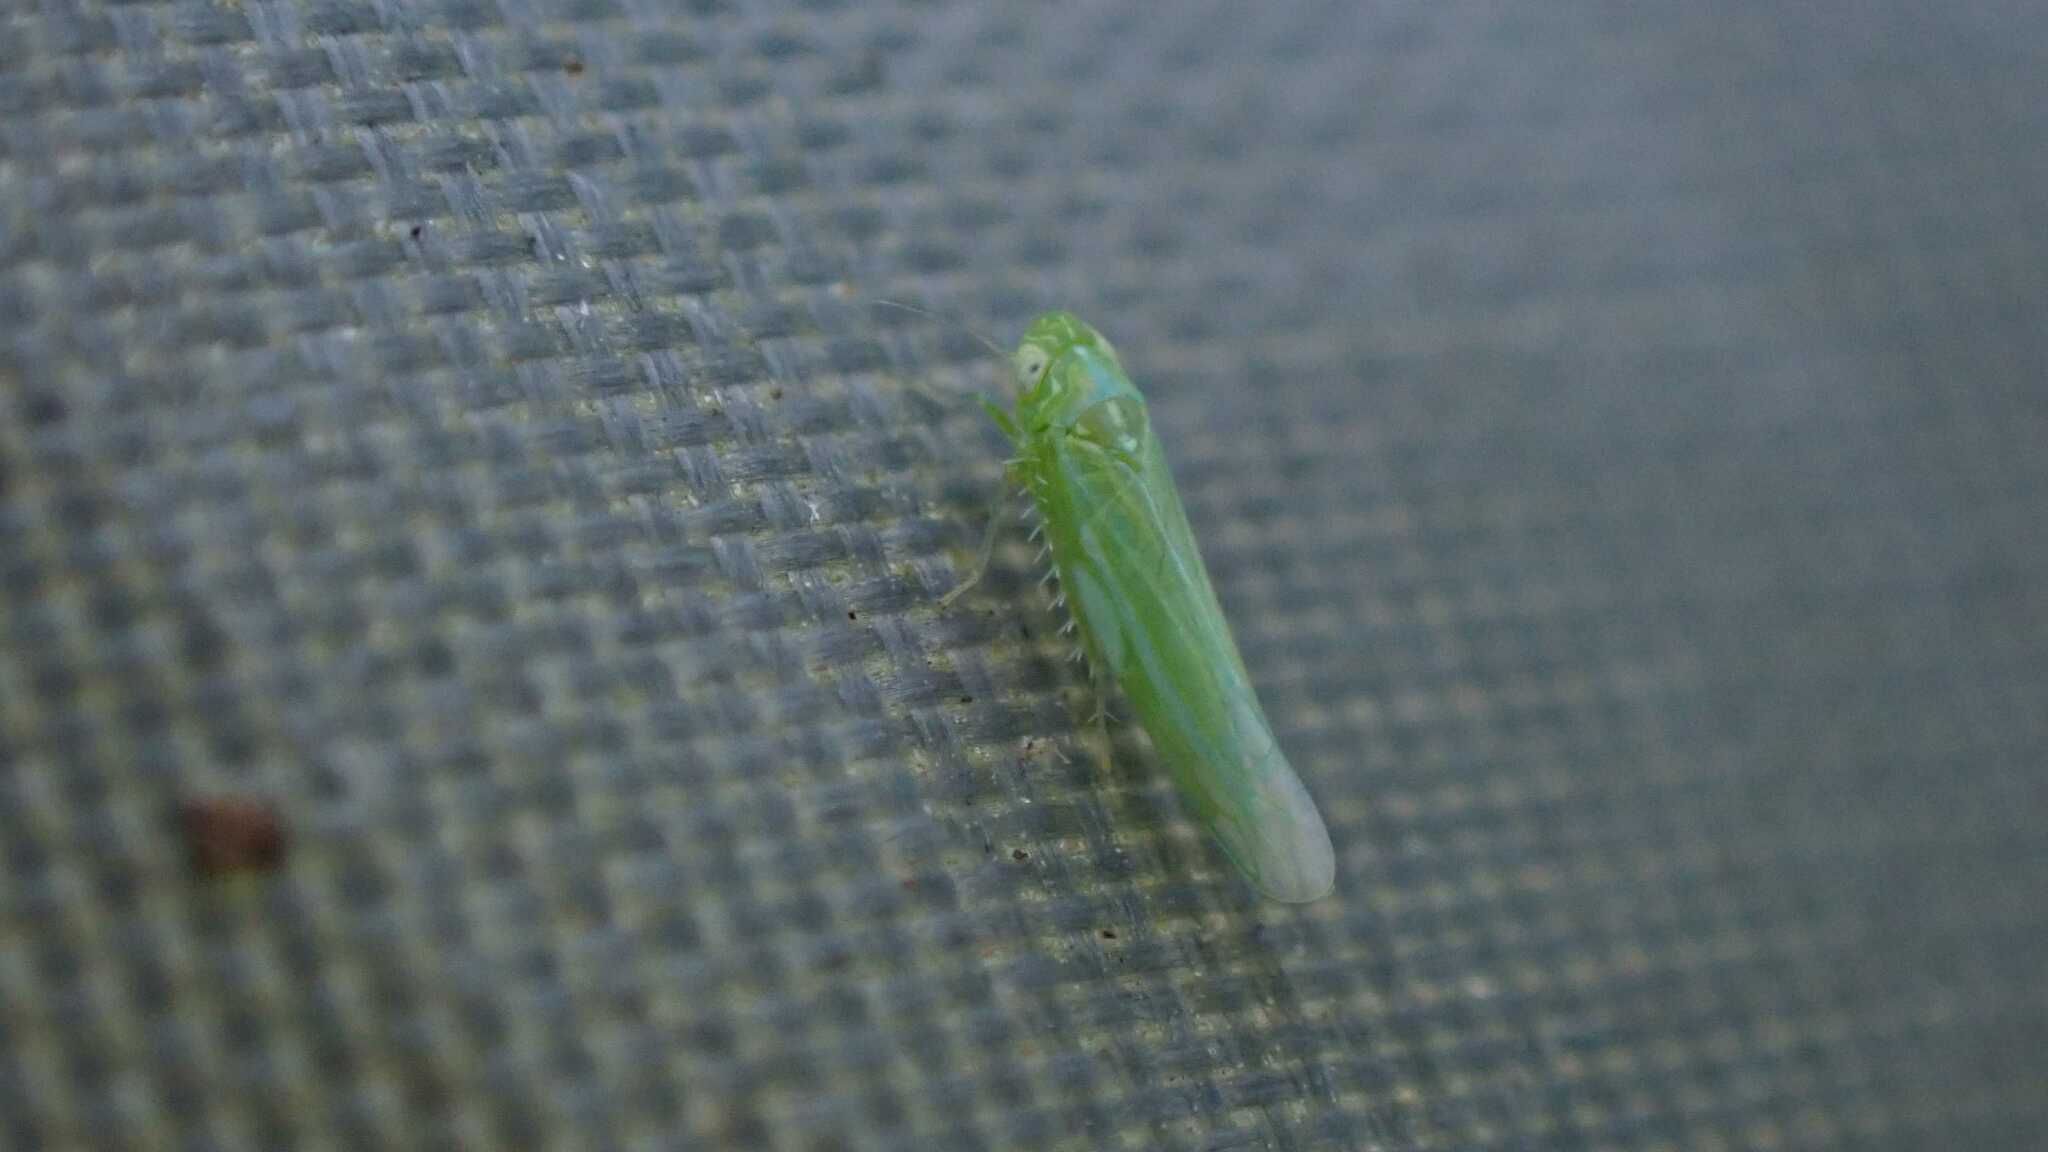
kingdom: Animalia
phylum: Arthropoda
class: Insecta
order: Hemiptera
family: Cicadellidae
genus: Hebata
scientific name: Hebata vitis
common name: The smaller green leafhopper
